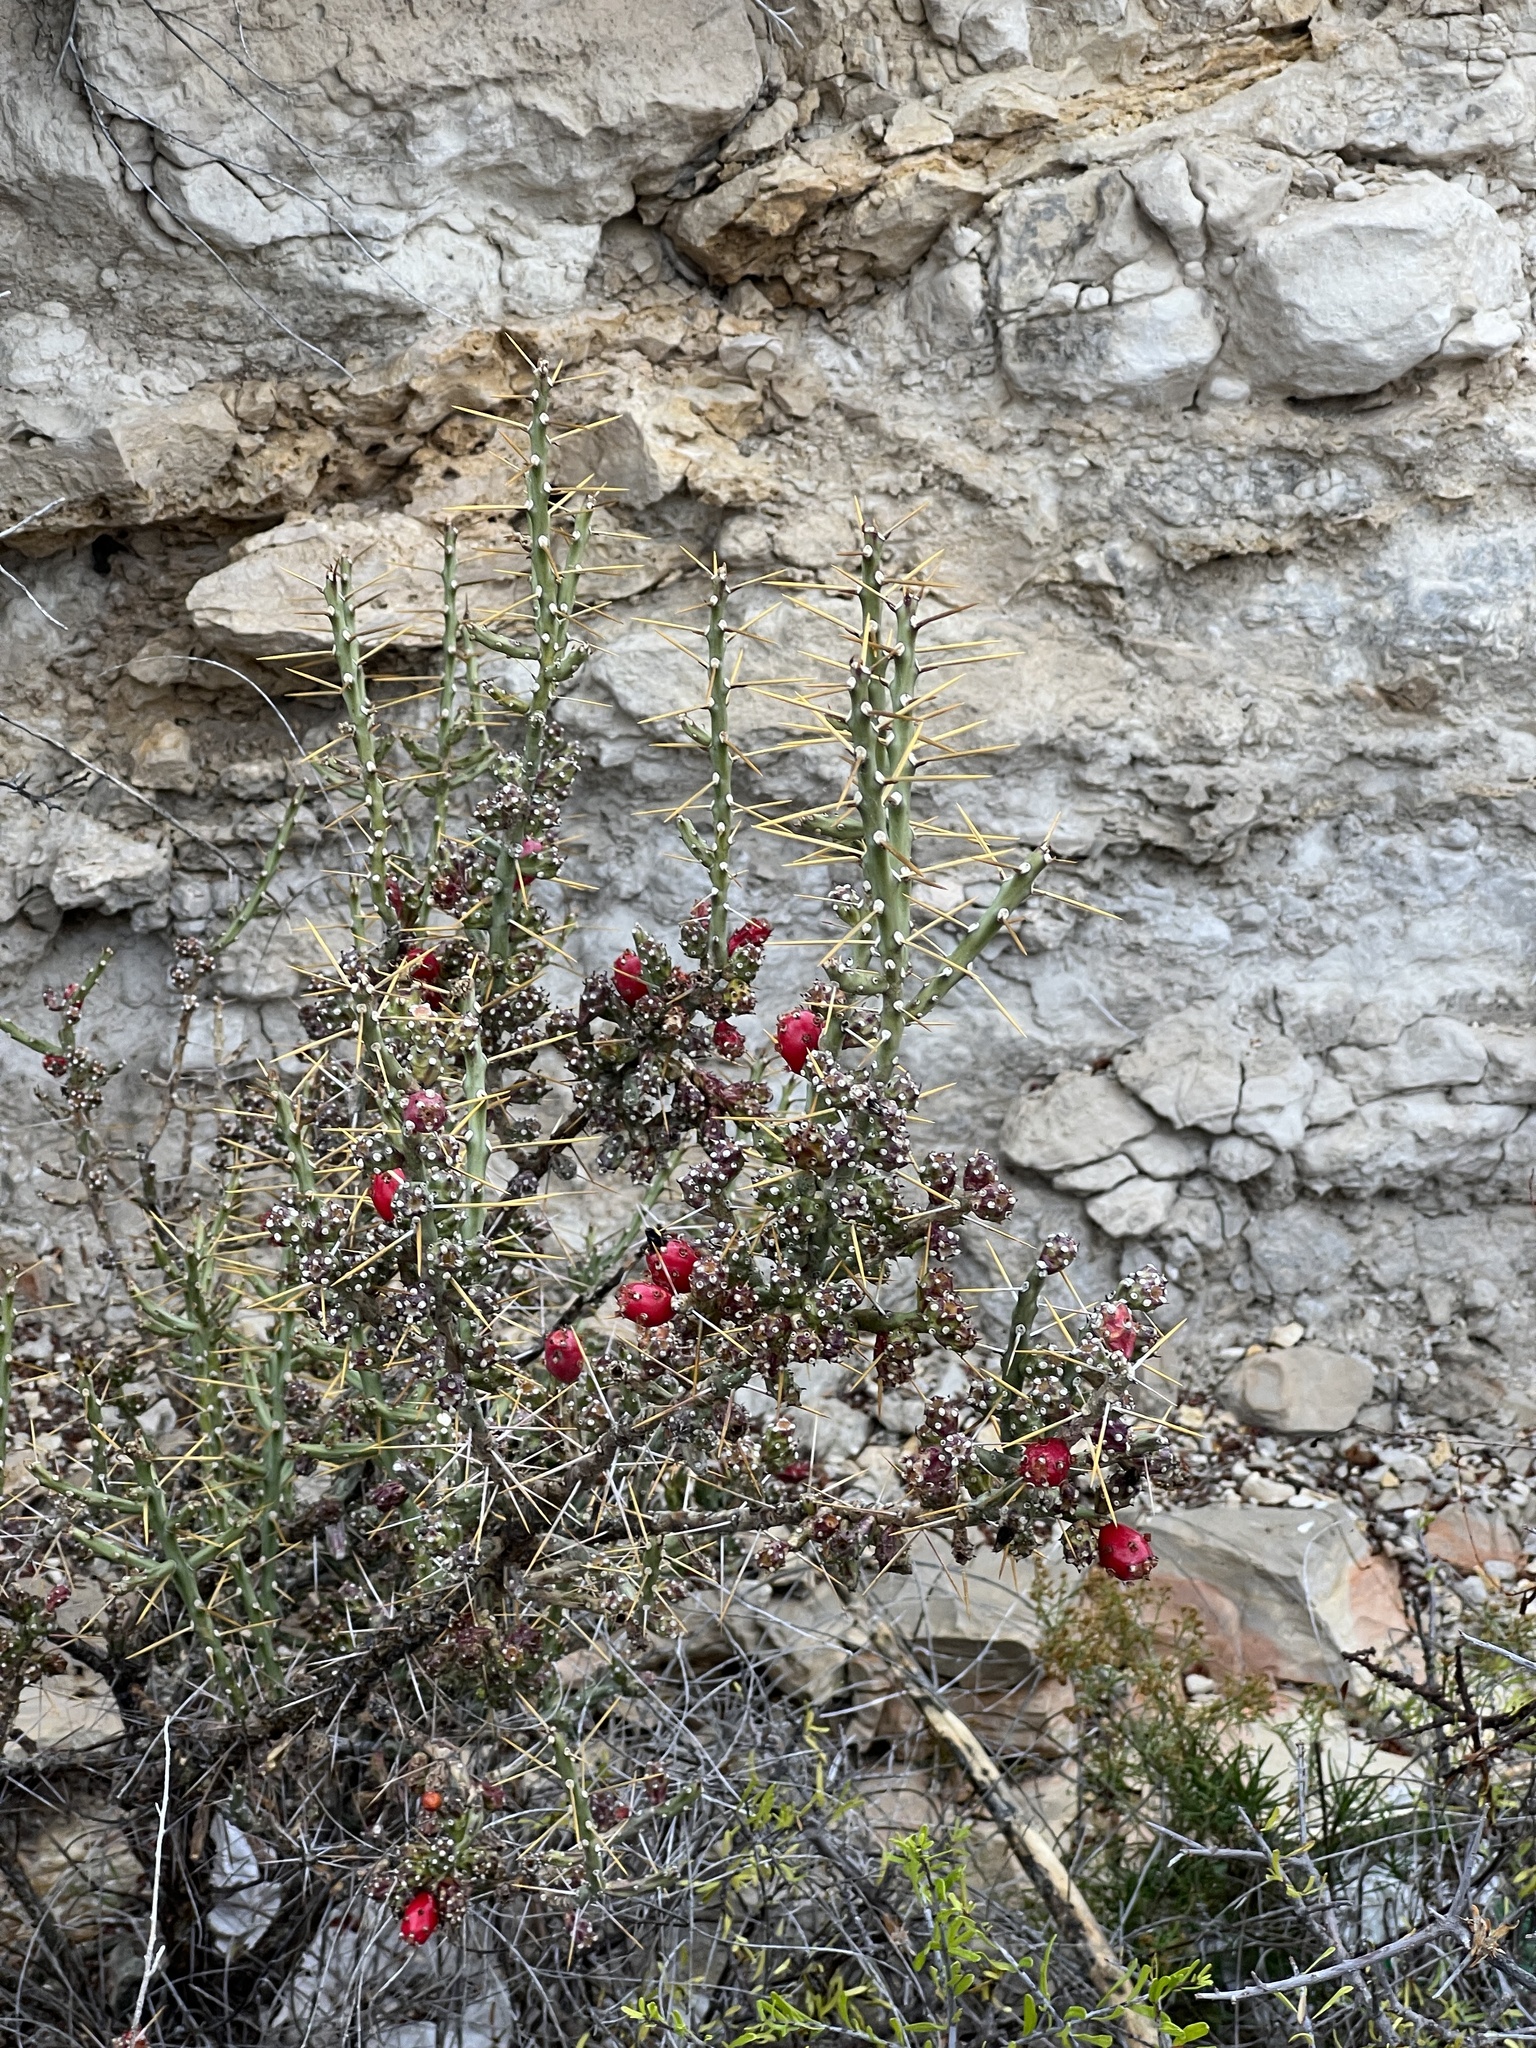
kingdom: Plantae
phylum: Tracheophyta
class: Magnoliopsida
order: Caryophyllales
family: Cactaceae
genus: Cylindropuntia
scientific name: Cylindropuntia leptocaulis
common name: Christmas cactus
